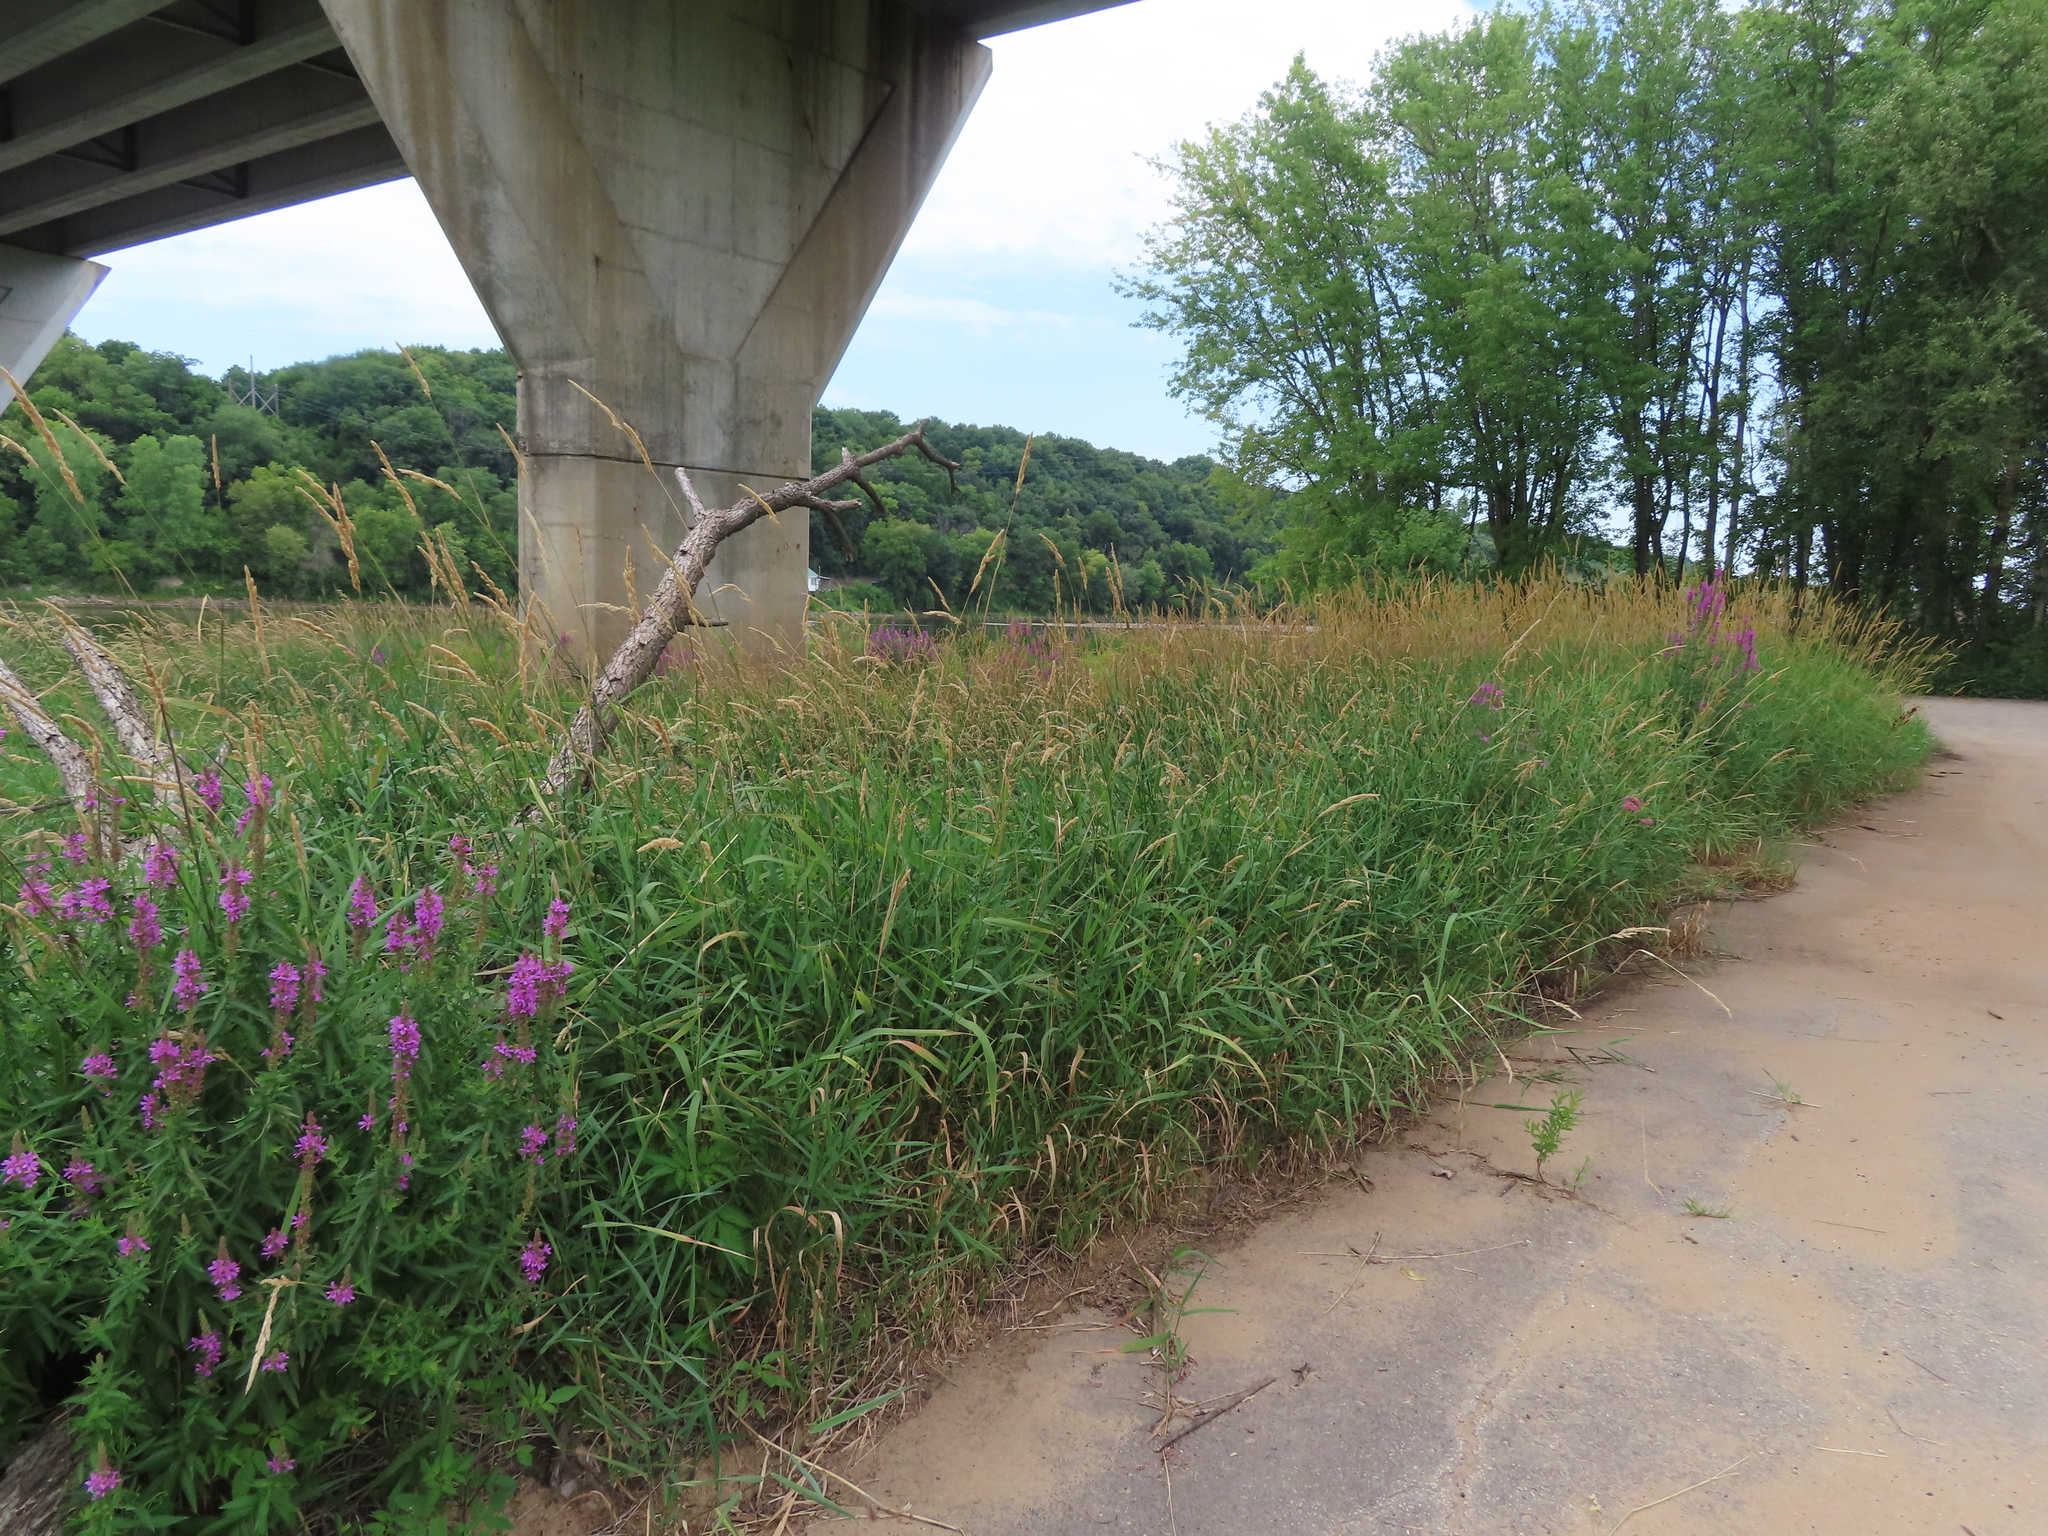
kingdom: Plantae
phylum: Tracheophyta
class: Liliopsida
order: Poales
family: Poaceae
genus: Phalaris
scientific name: Phalaris arundinacea
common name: Reed canary-grass
